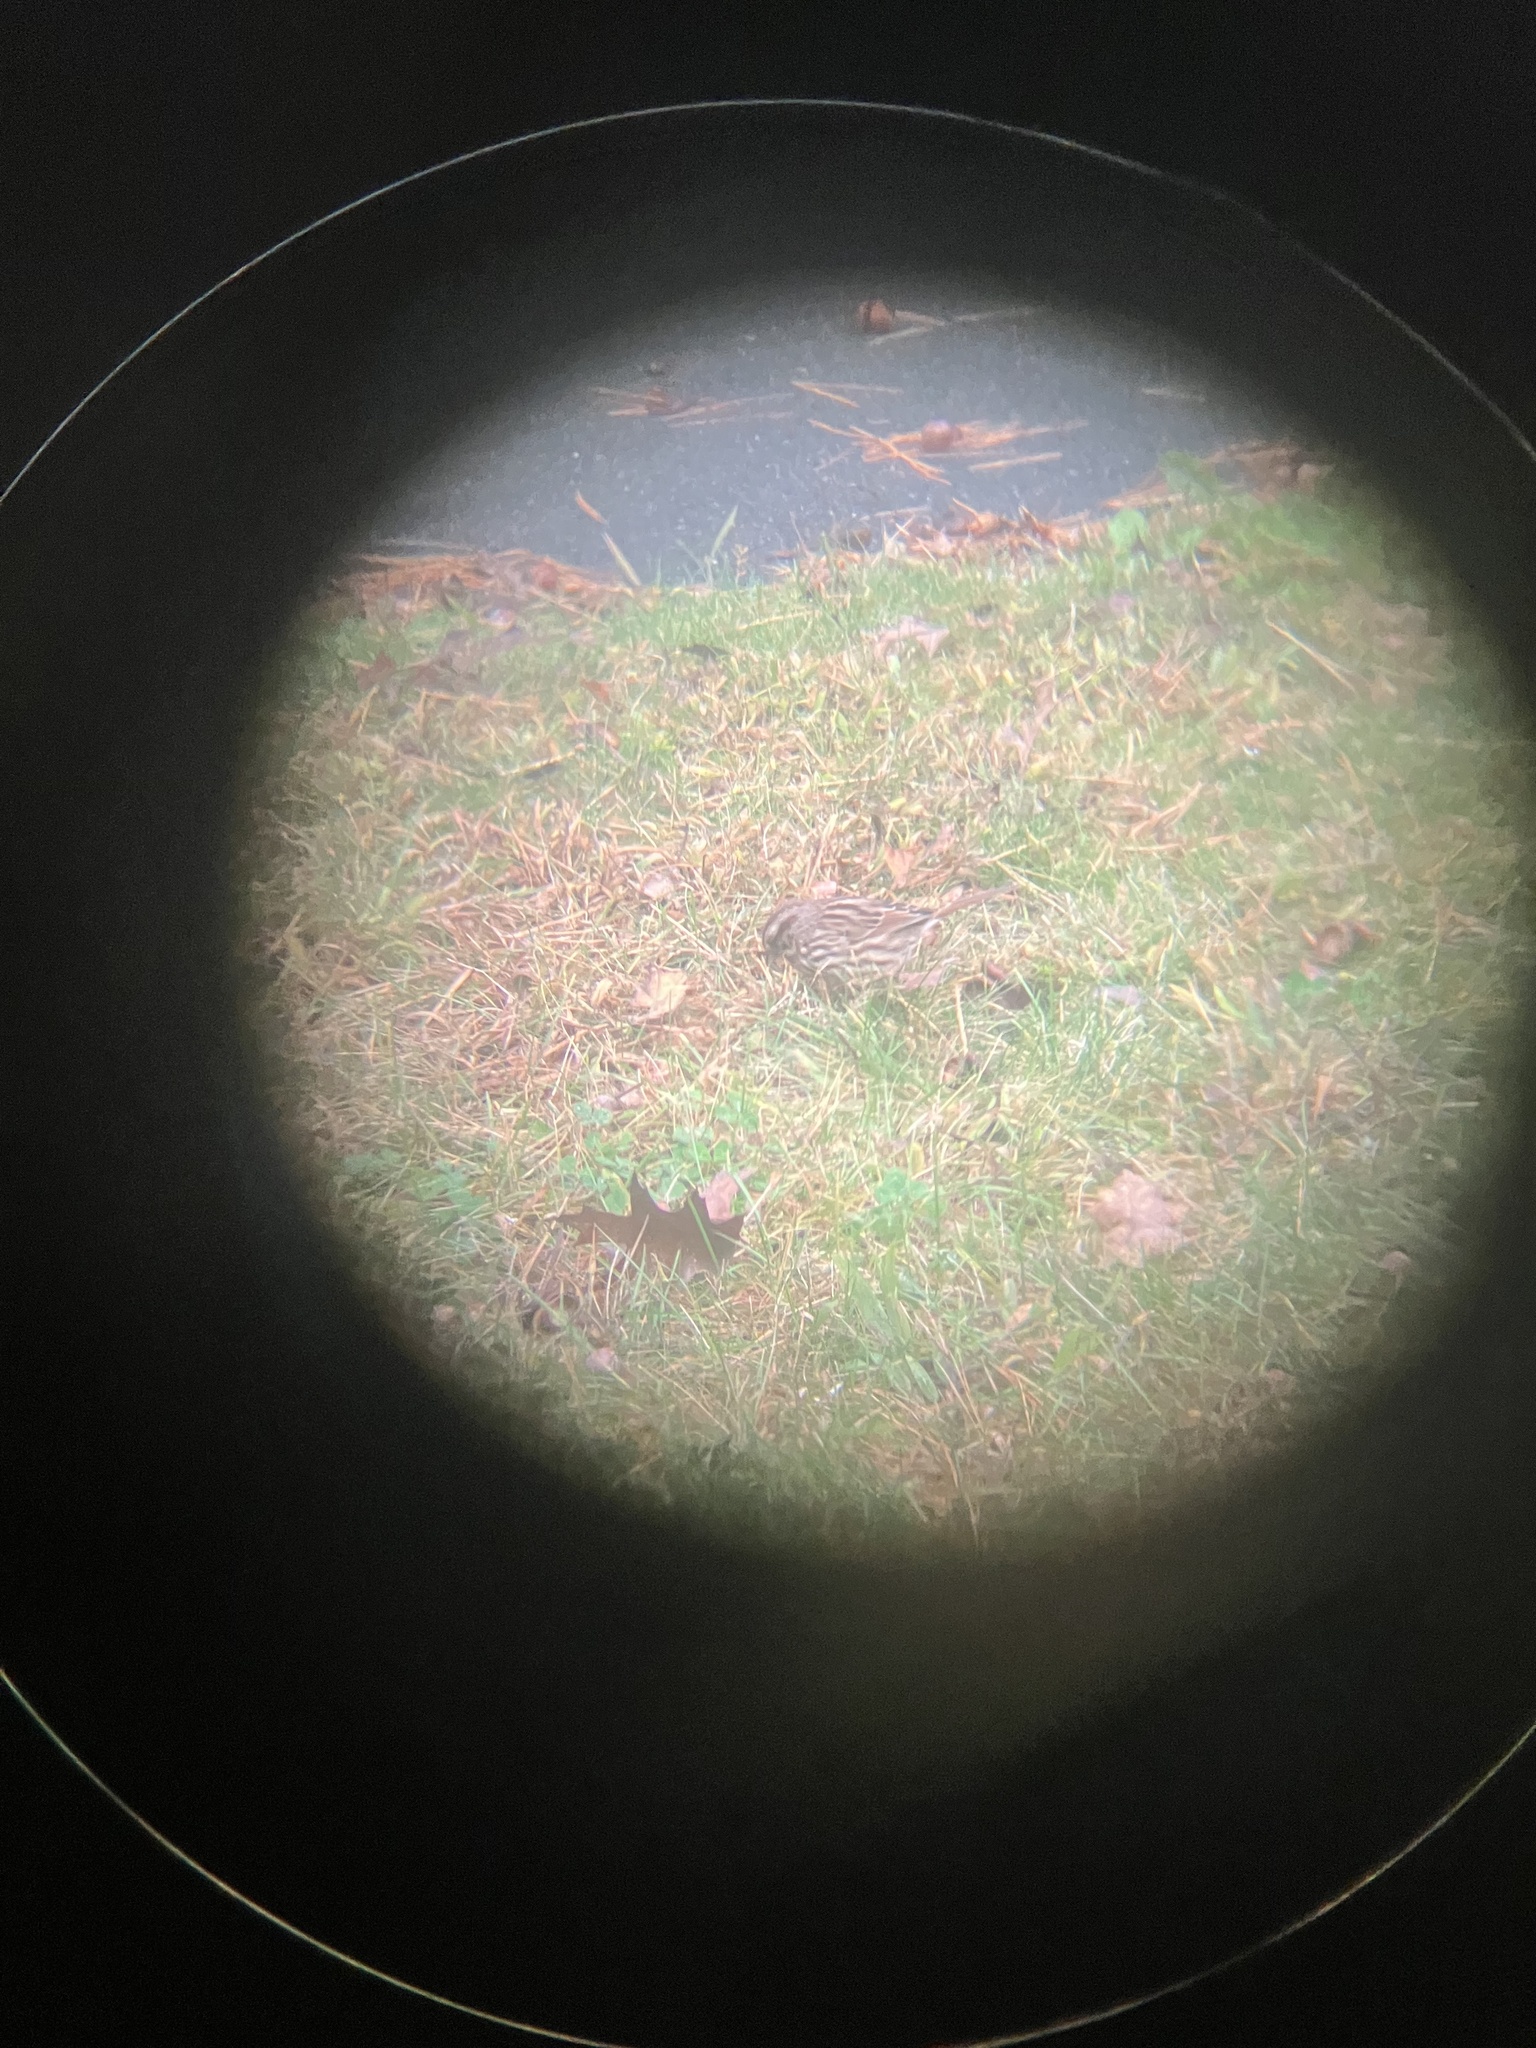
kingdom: Animalia
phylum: Chordata
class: Aves
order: Passeriformes
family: Passerellidae
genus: Melospiza
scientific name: Melospiza melodia
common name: Song sparrow
